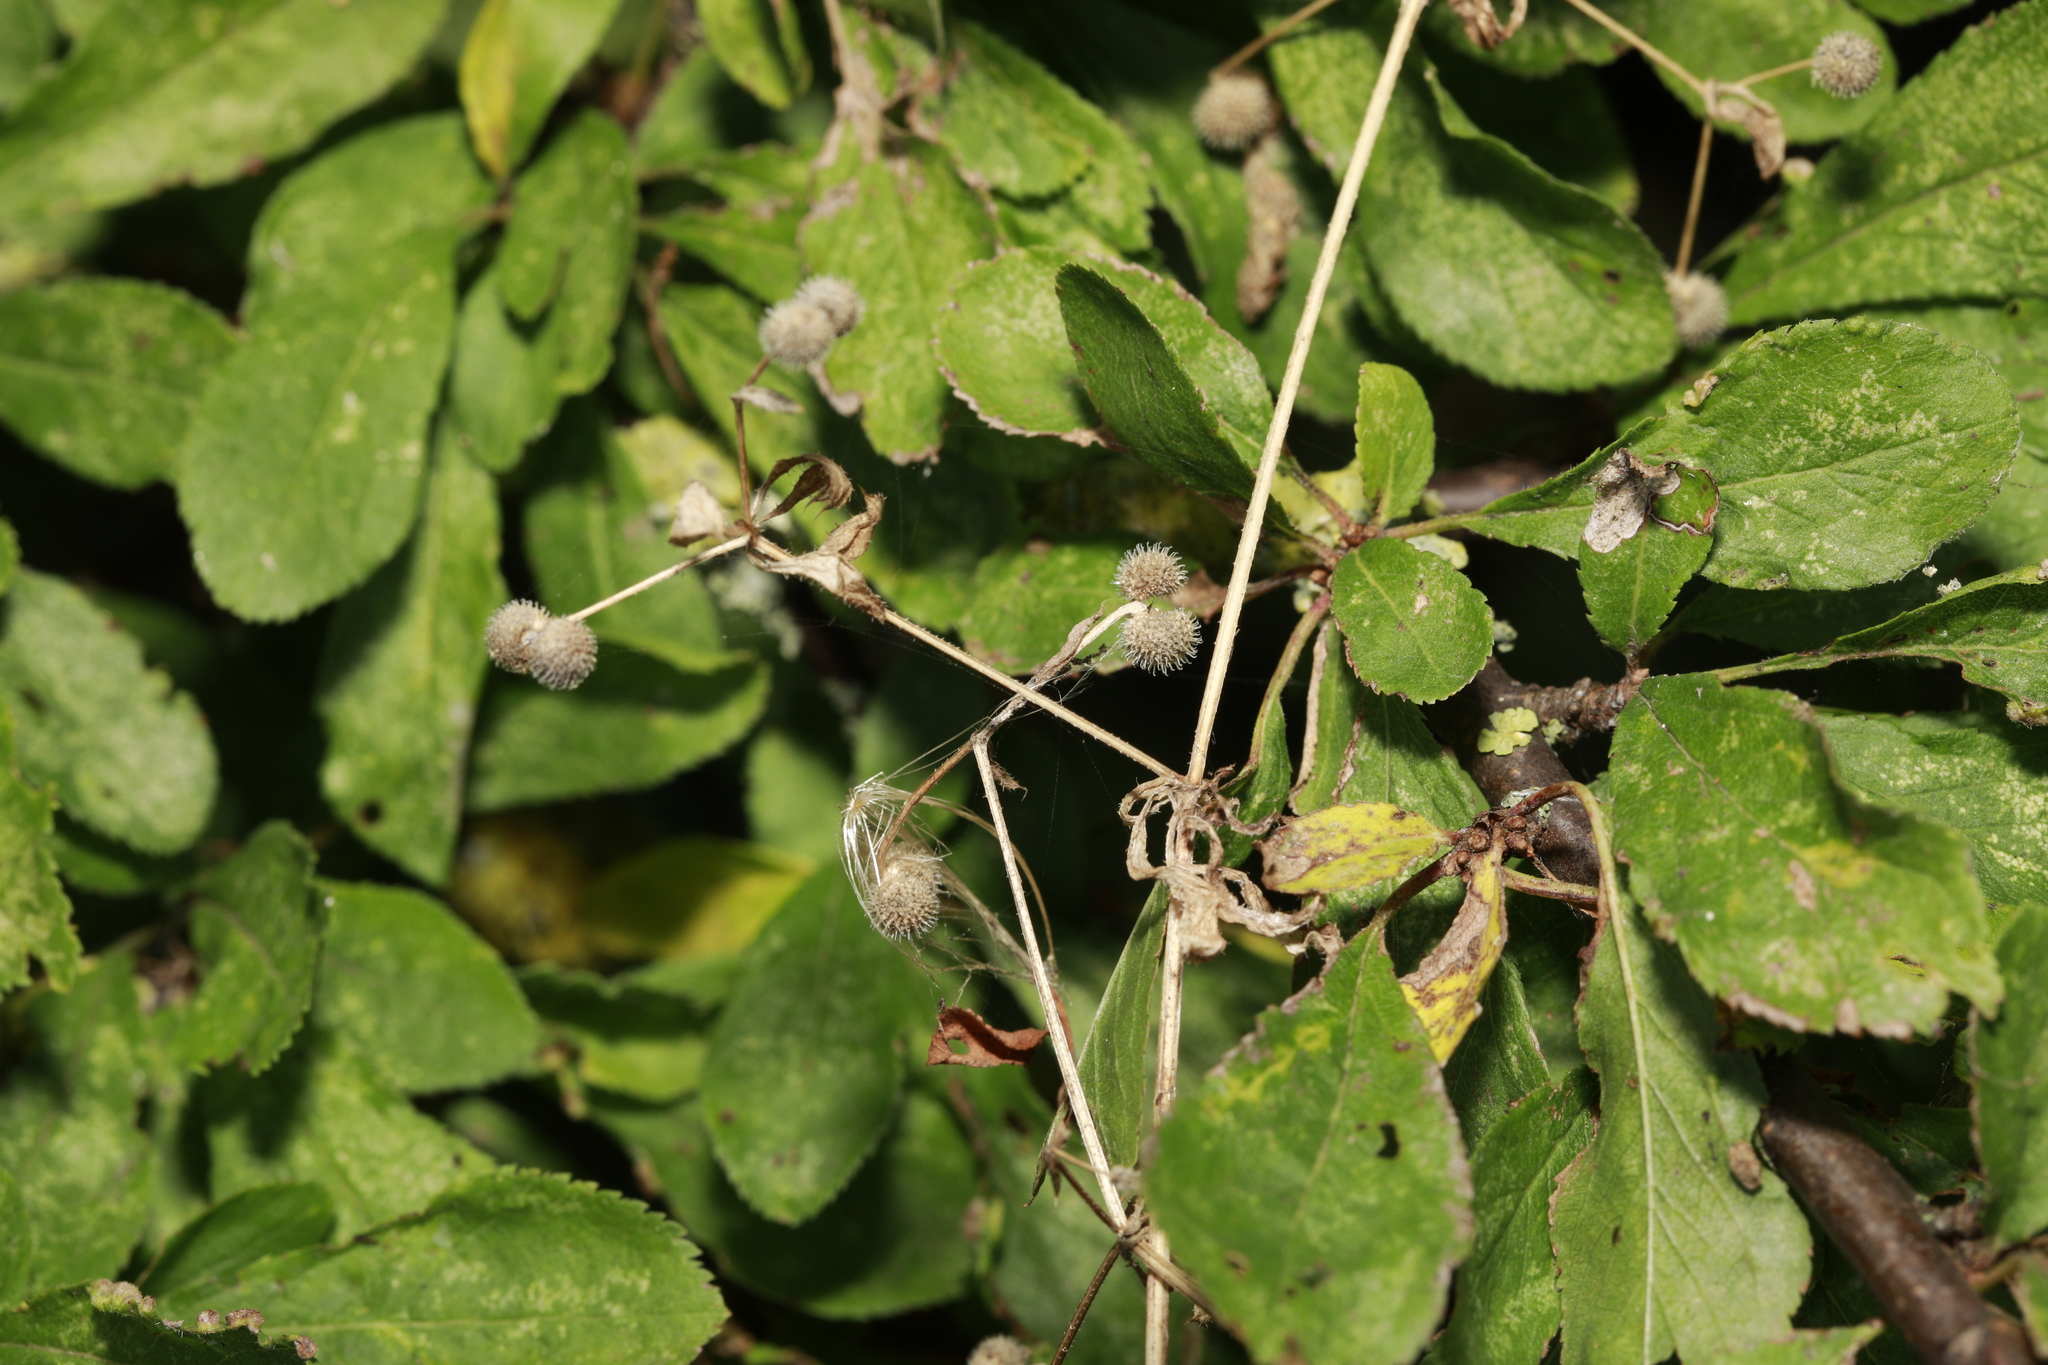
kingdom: Plantae
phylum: Tracheophyta
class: Magnoliopsida
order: Gentianales
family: Rubiaceae
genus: Galium
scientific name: Galium aparine
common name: Cleavers
